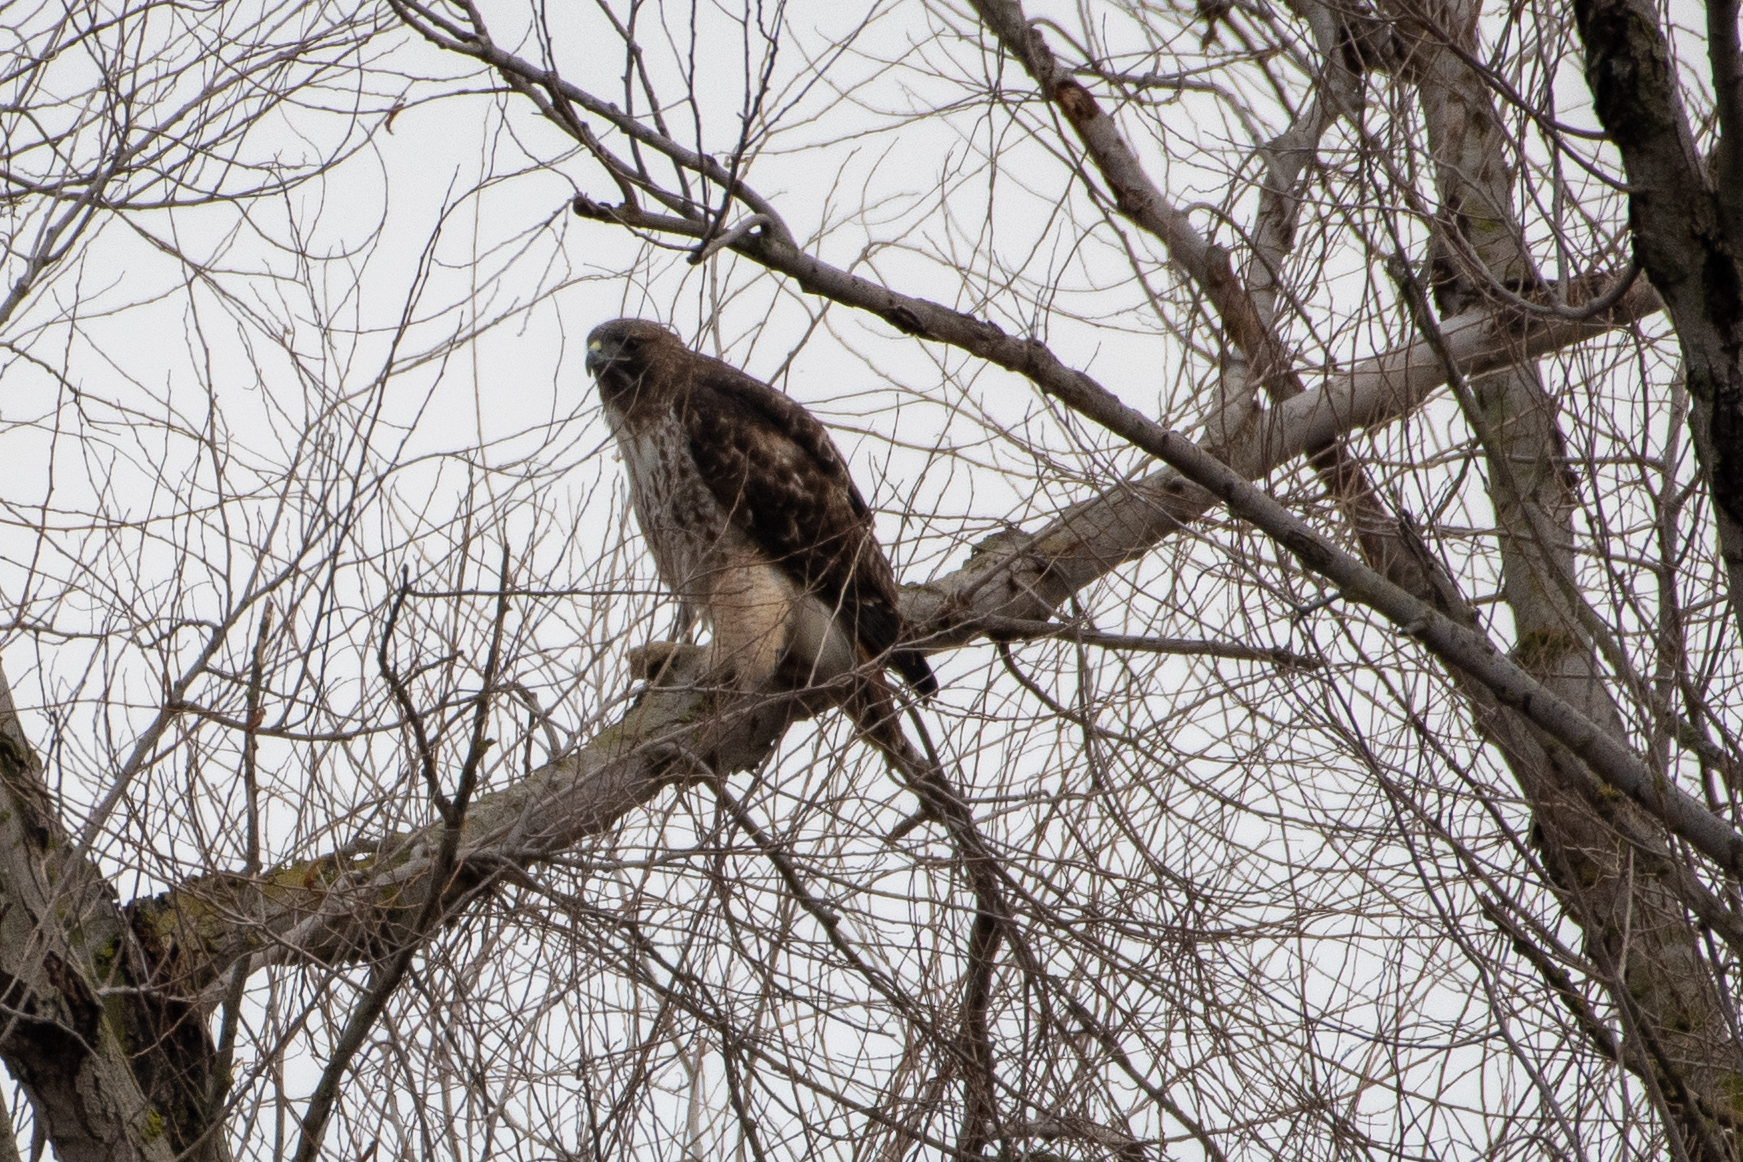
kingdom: Animalia
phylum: Chordata
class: Aves
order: Accipitriformes
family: Accipitridae
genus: Buteo
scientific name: Buteo jamaicensis
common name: Red-tailed hawk
